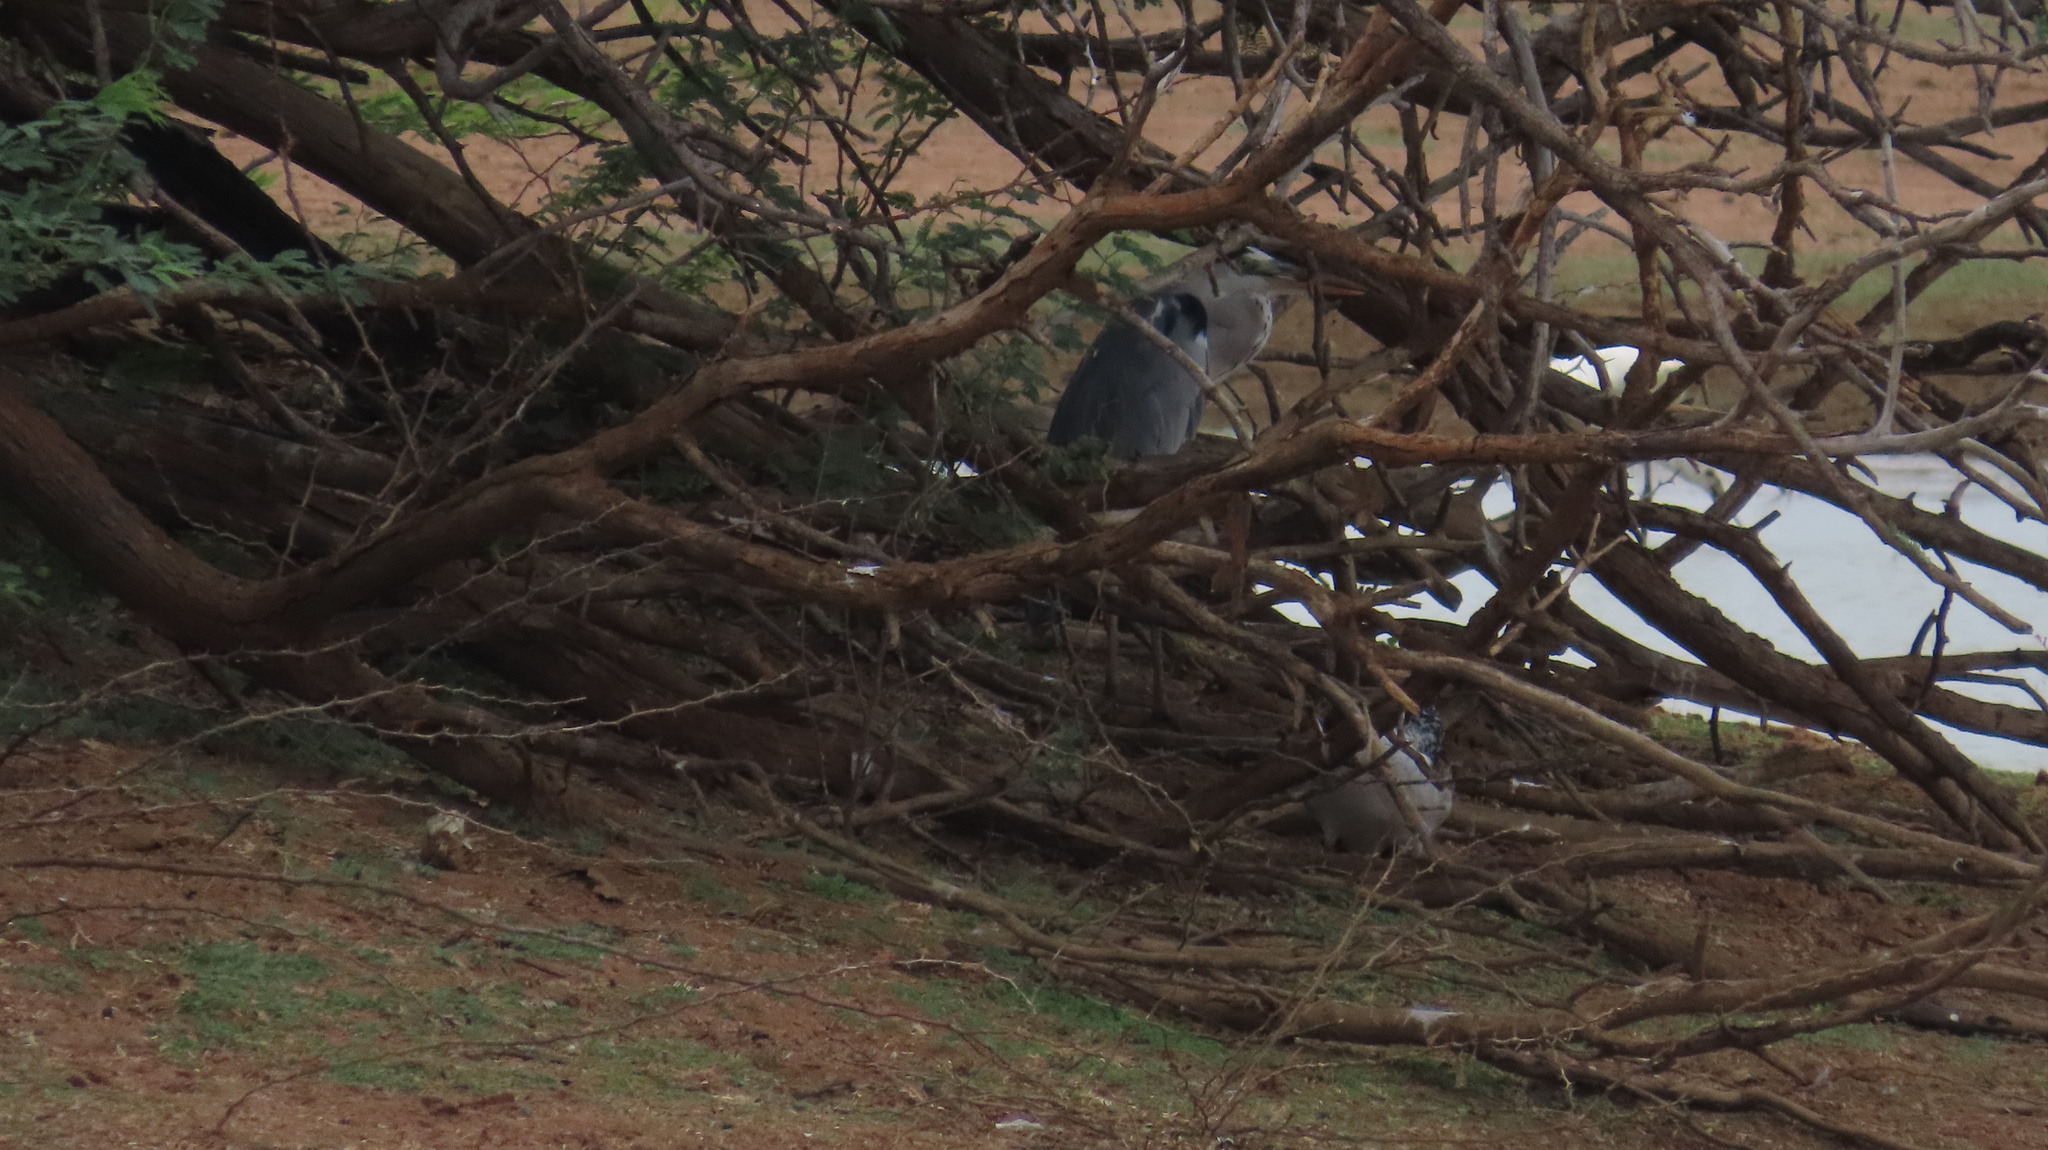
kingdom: Animalia
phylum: Chordata
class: Aves
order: Pelecaniformes
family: Ardeidae
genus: Ardea
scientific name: Ardea cinerea
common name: Grey heron
